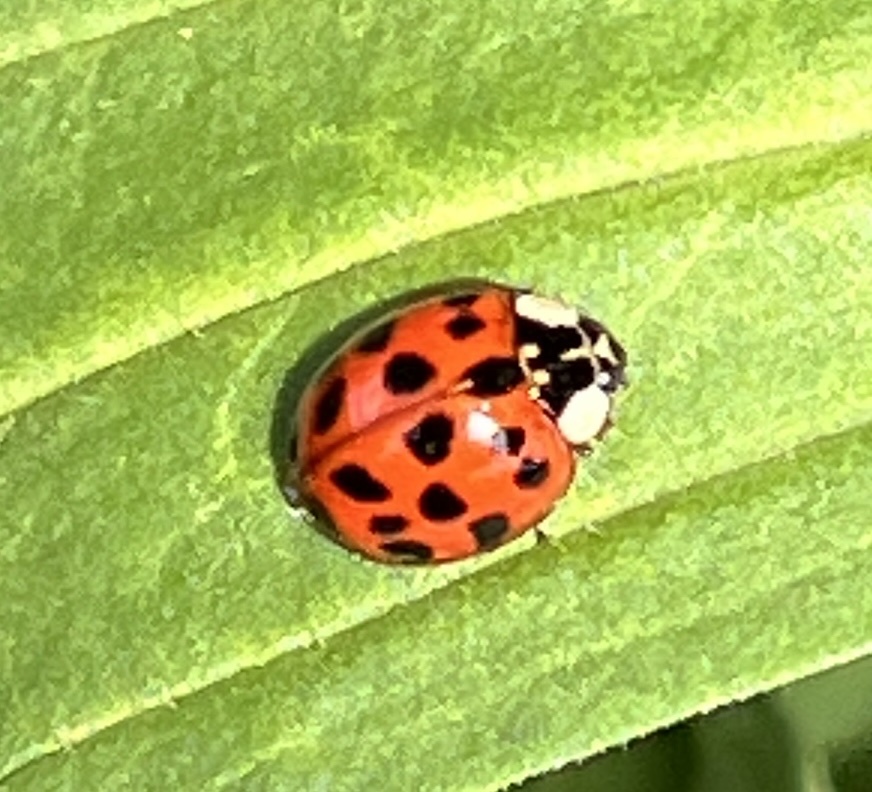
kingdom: Animalia
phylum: Arthropoda
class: Insecta
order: Coleoptera
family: Coccinellidae
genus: Harmonia
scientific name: Harmonia axyridis
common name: Harlequin ladybird
